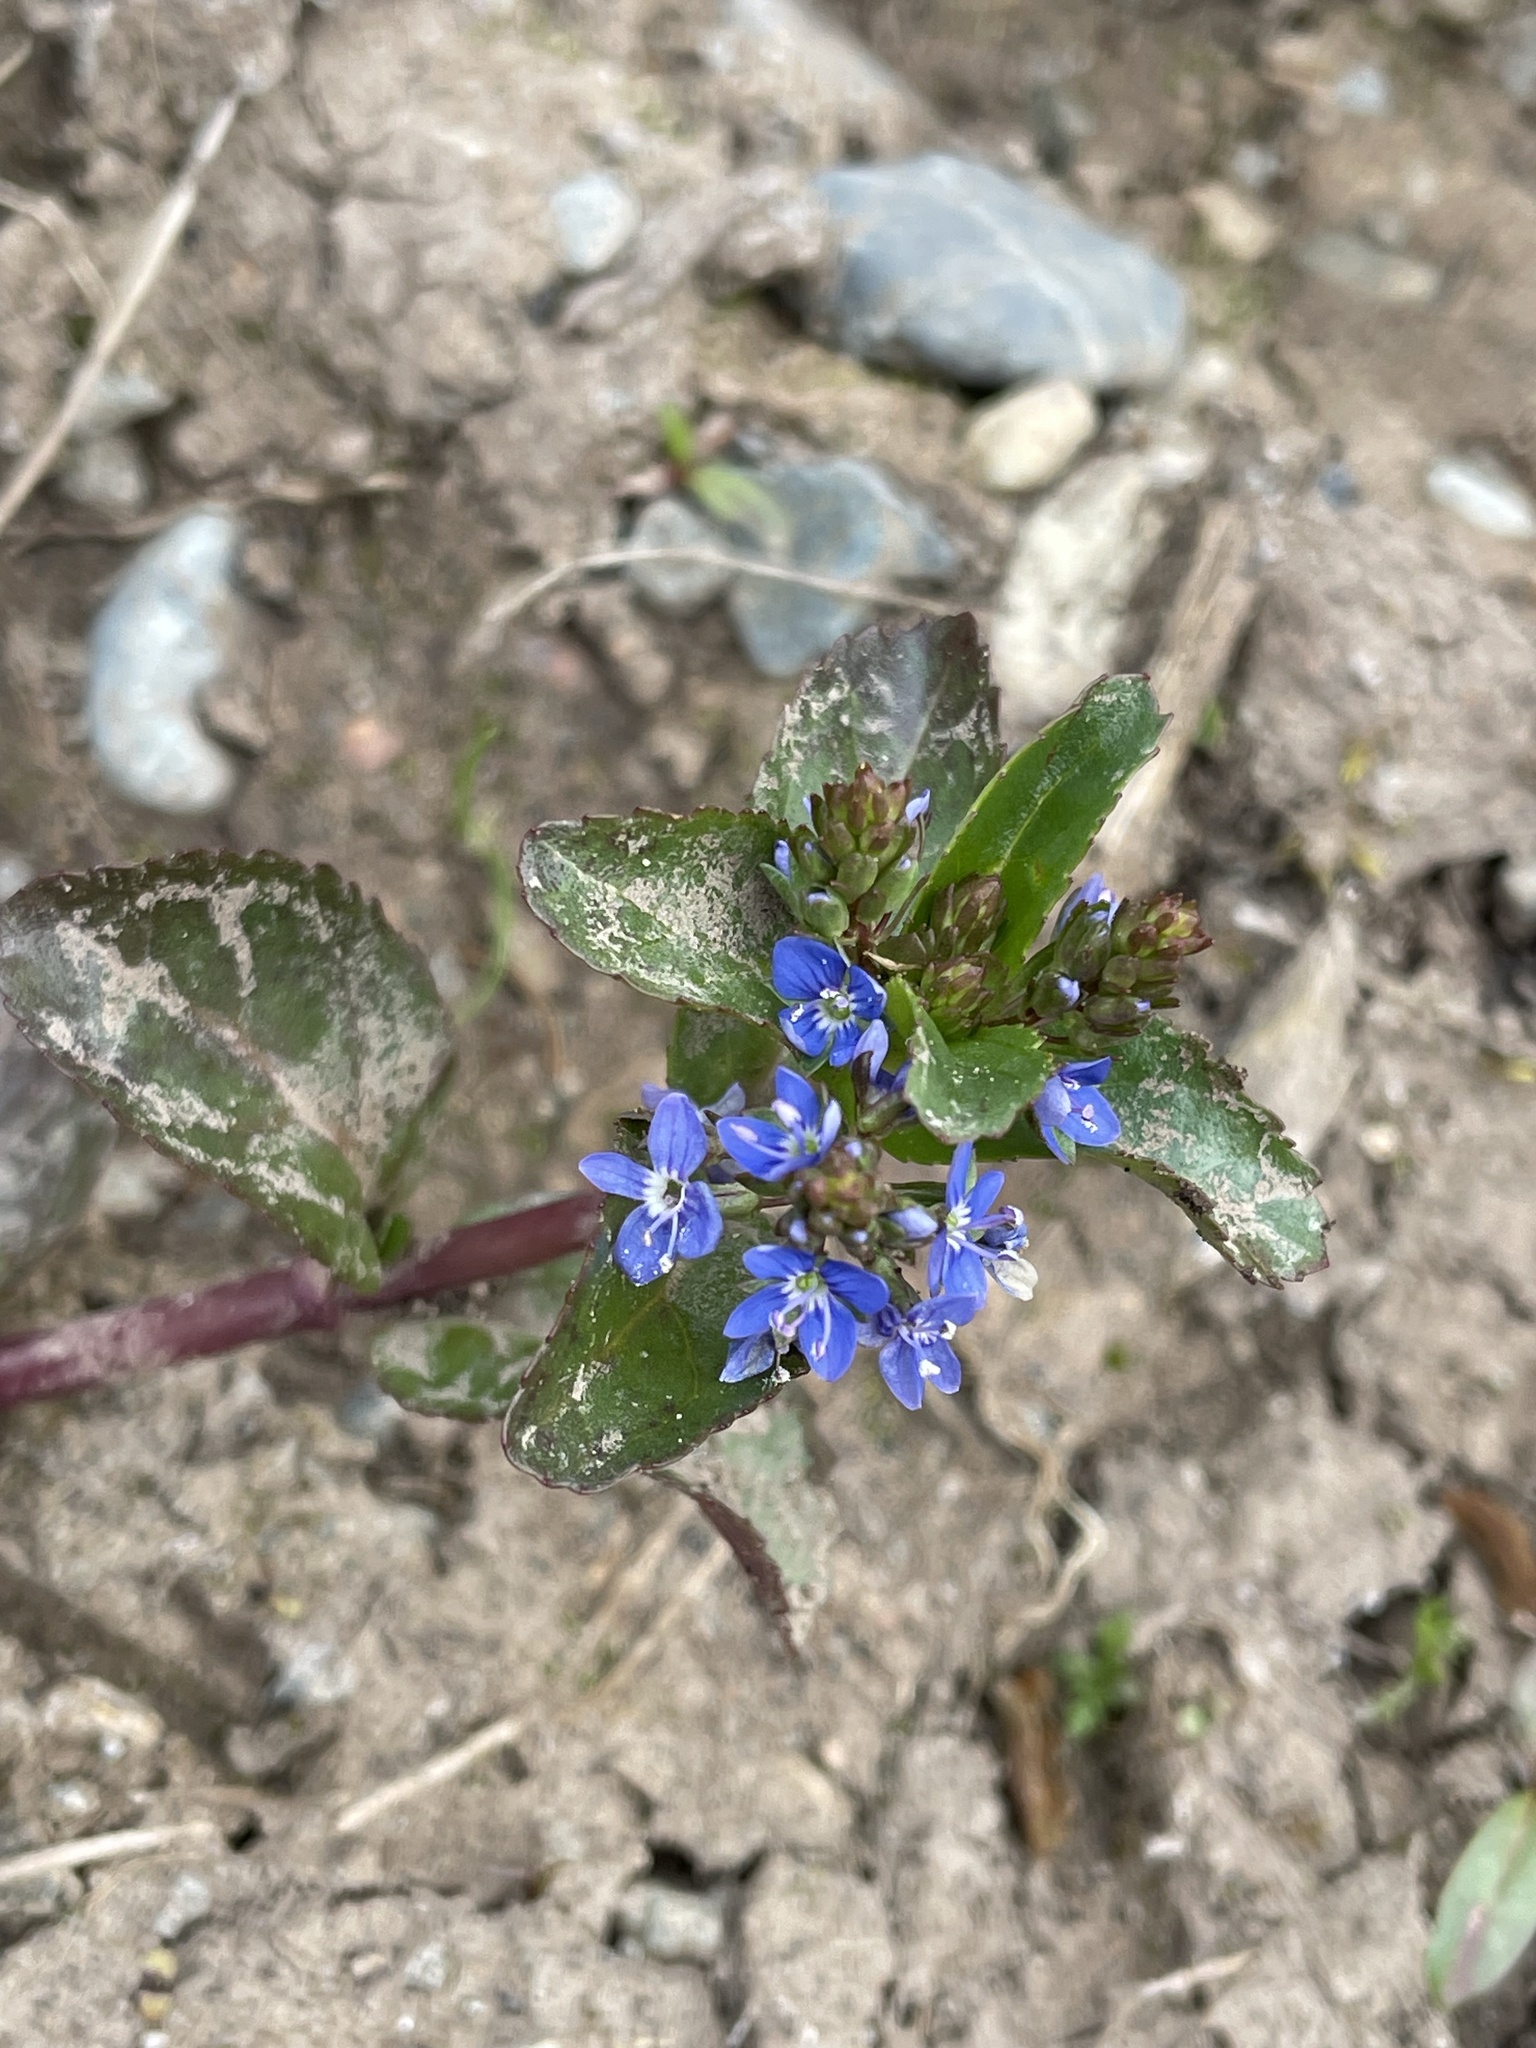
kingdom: Plantae
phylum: Tracheophyta
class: Magnoliopsida
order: Lamiales
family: Plantaginaceae
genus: Veronica
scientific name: Veronica beccabunga
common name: Brooklime
